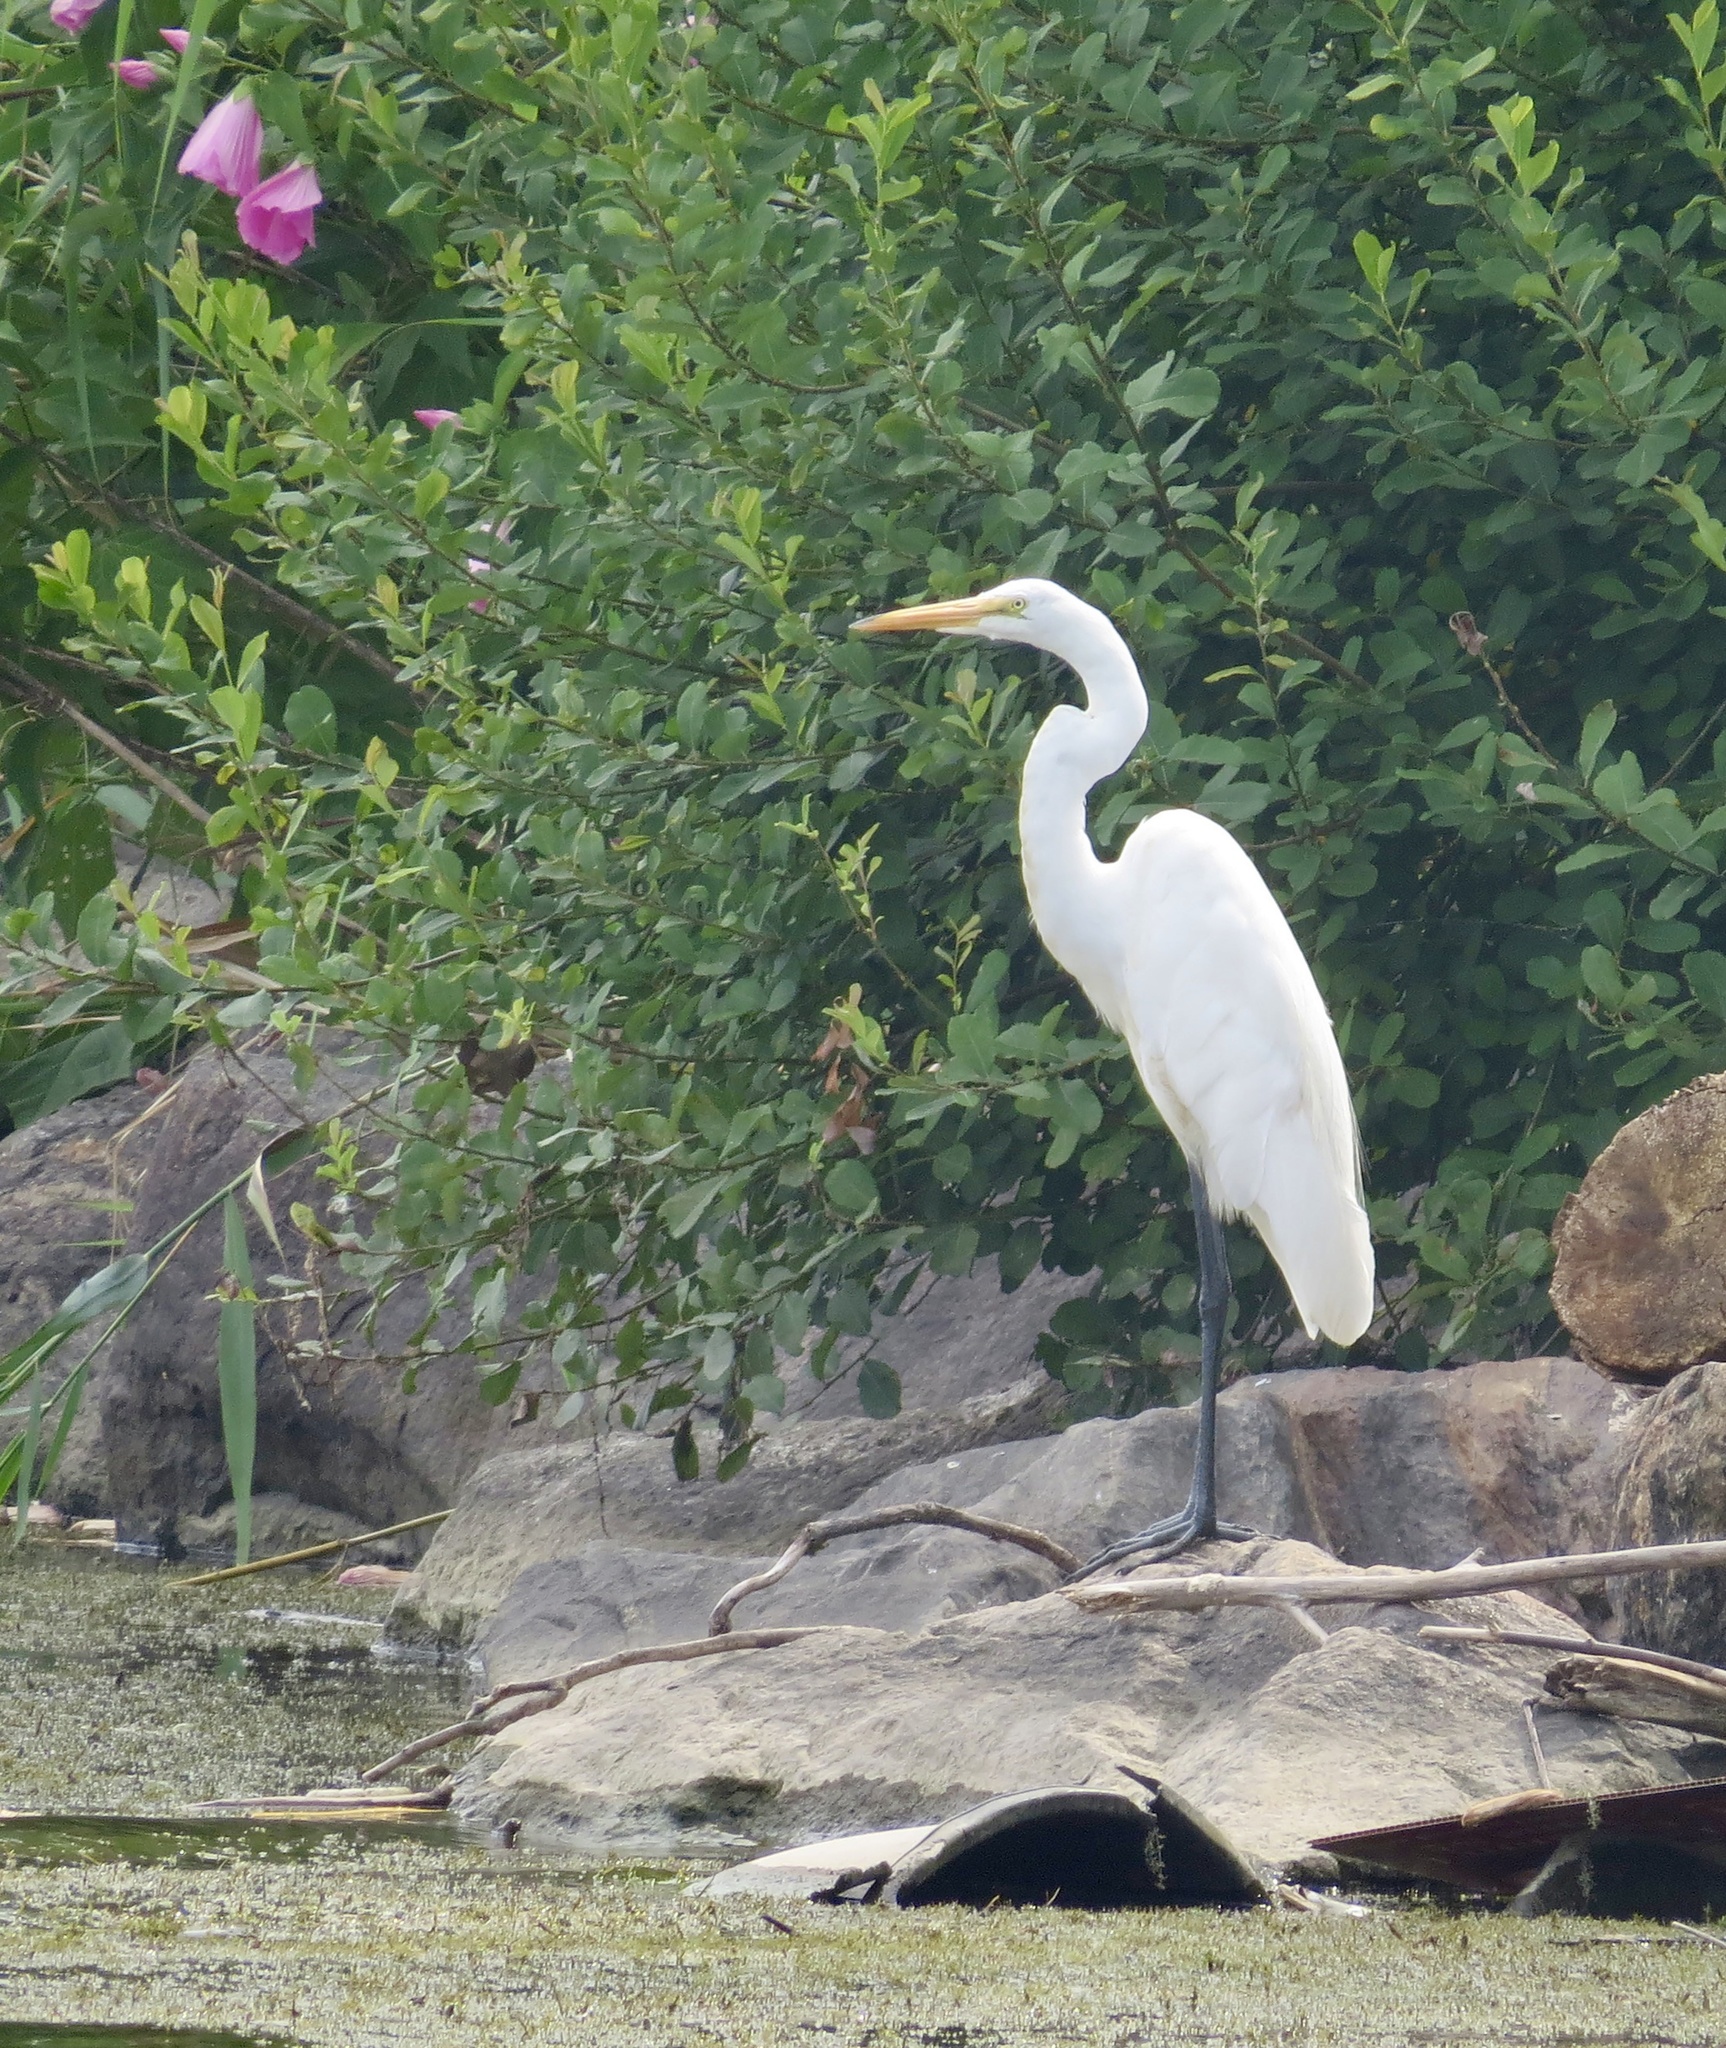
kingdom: Animalia
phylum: Chordata
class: Aves
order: Pelecaniformes
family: Ardeidae
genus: Ardea
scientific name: Ardea alba
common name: Great egret
